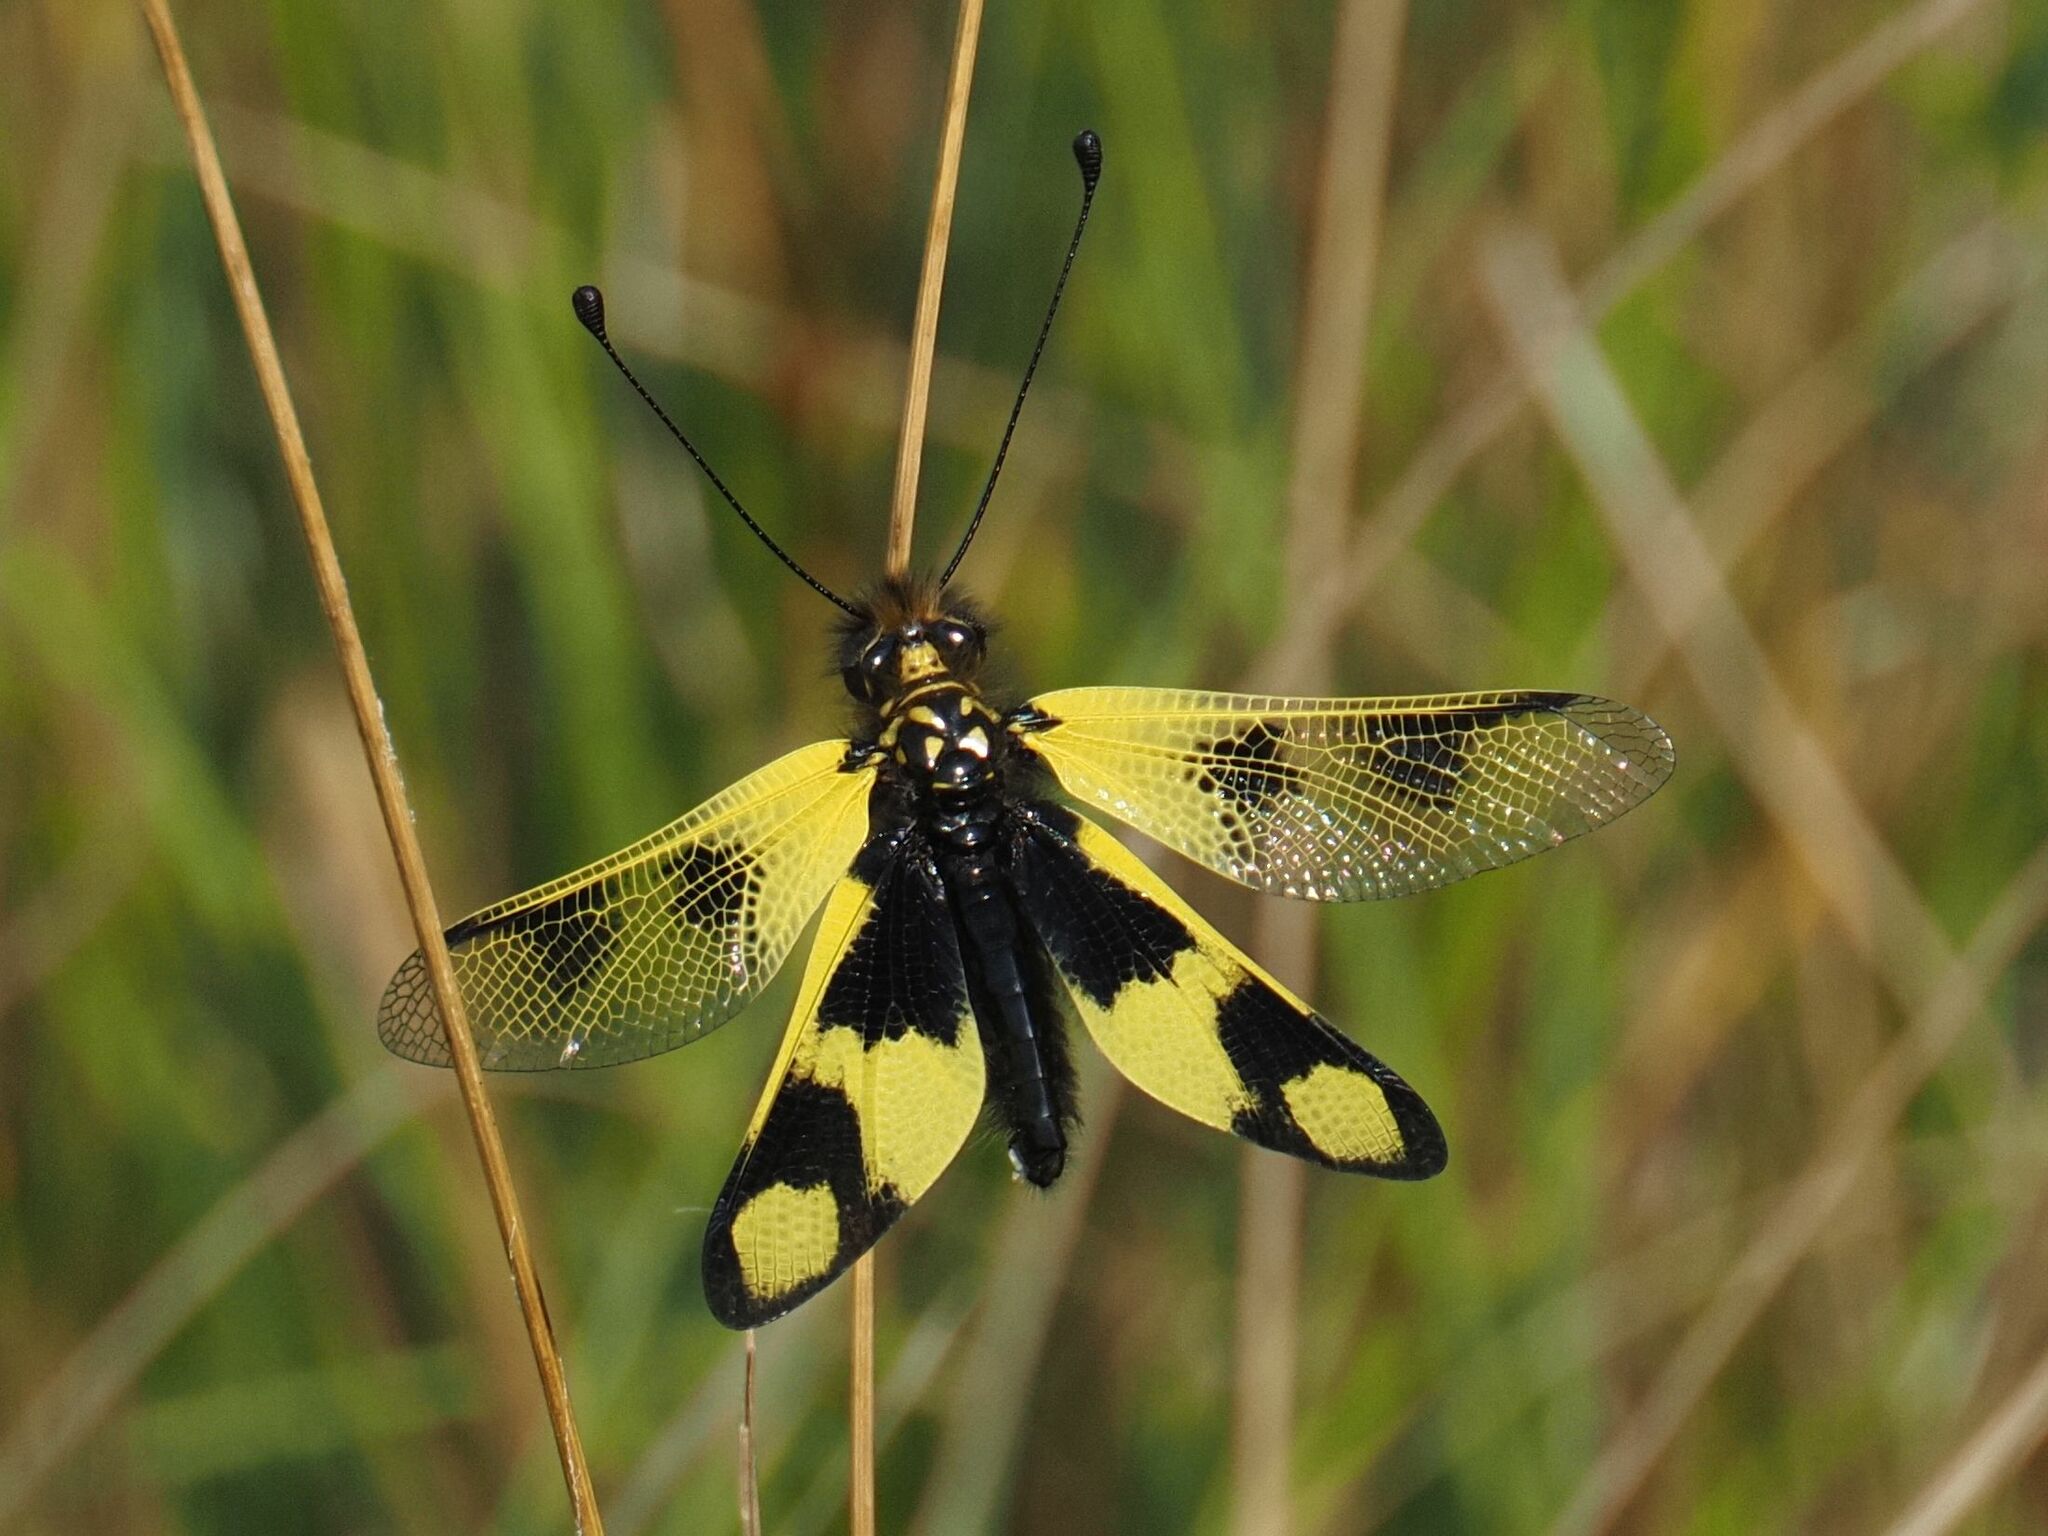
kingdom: Animalia
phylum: Arthropoda
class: Insecta
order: Neuroptera
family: Ascalaphidae
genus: Libelloides
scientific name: Libelloides macaronius
